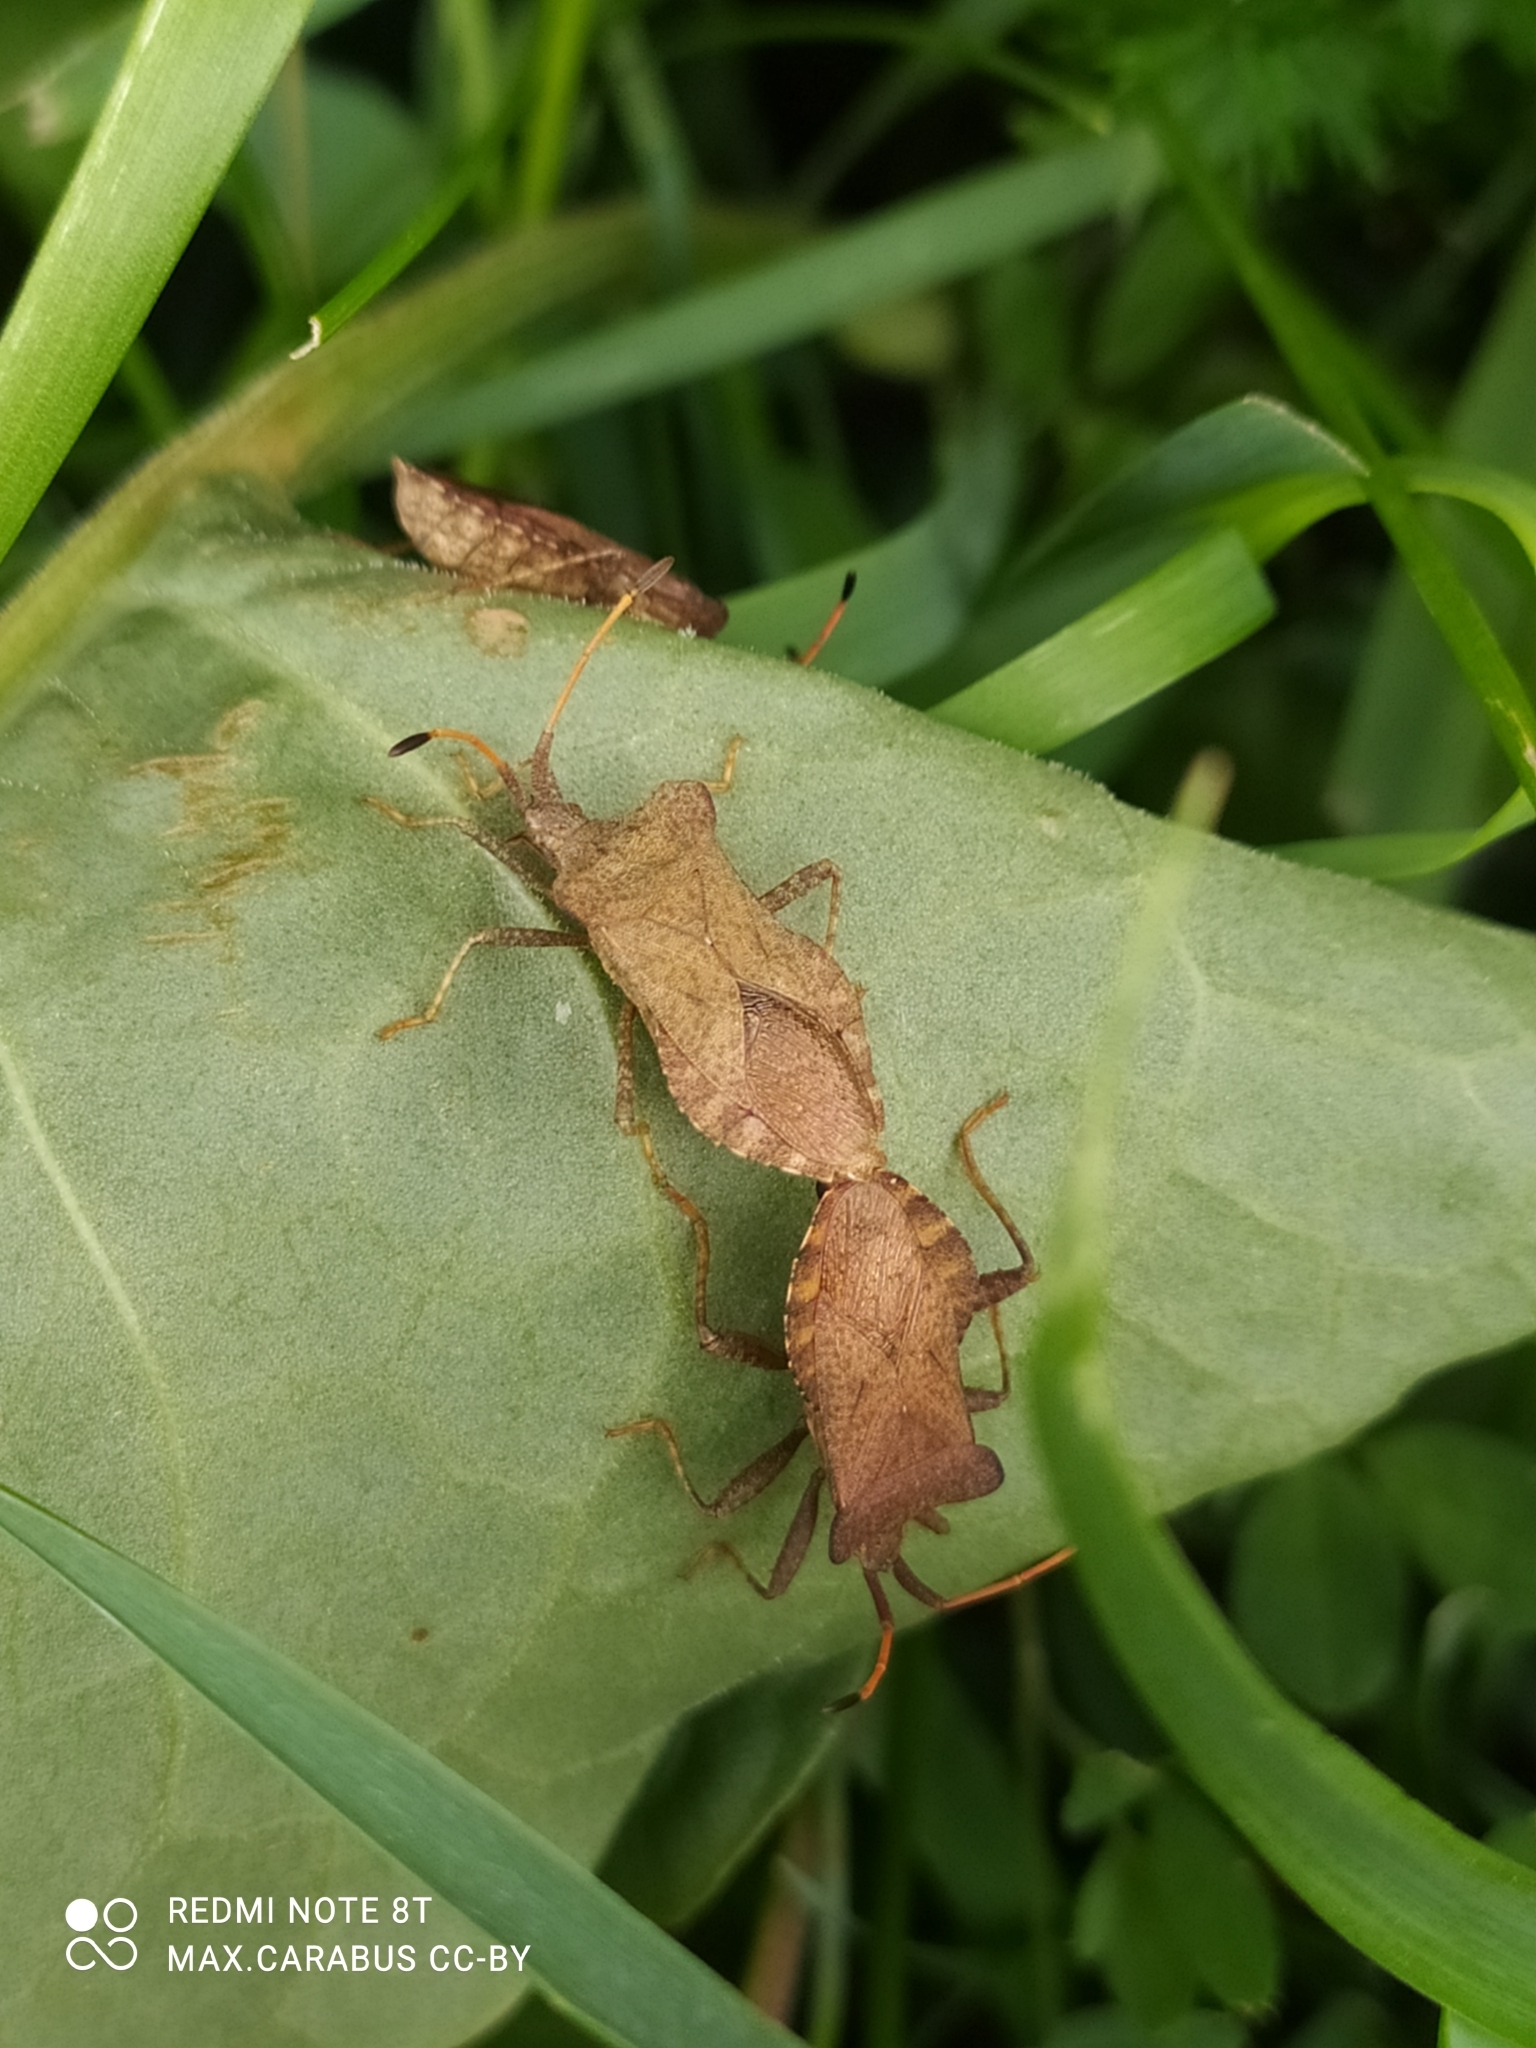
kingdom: Animalia
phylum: Arthropoda
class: Insecta
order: Hemiptera
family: Coreidae
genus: Coreus
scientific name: Coreus marginatus
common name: Dock bug
